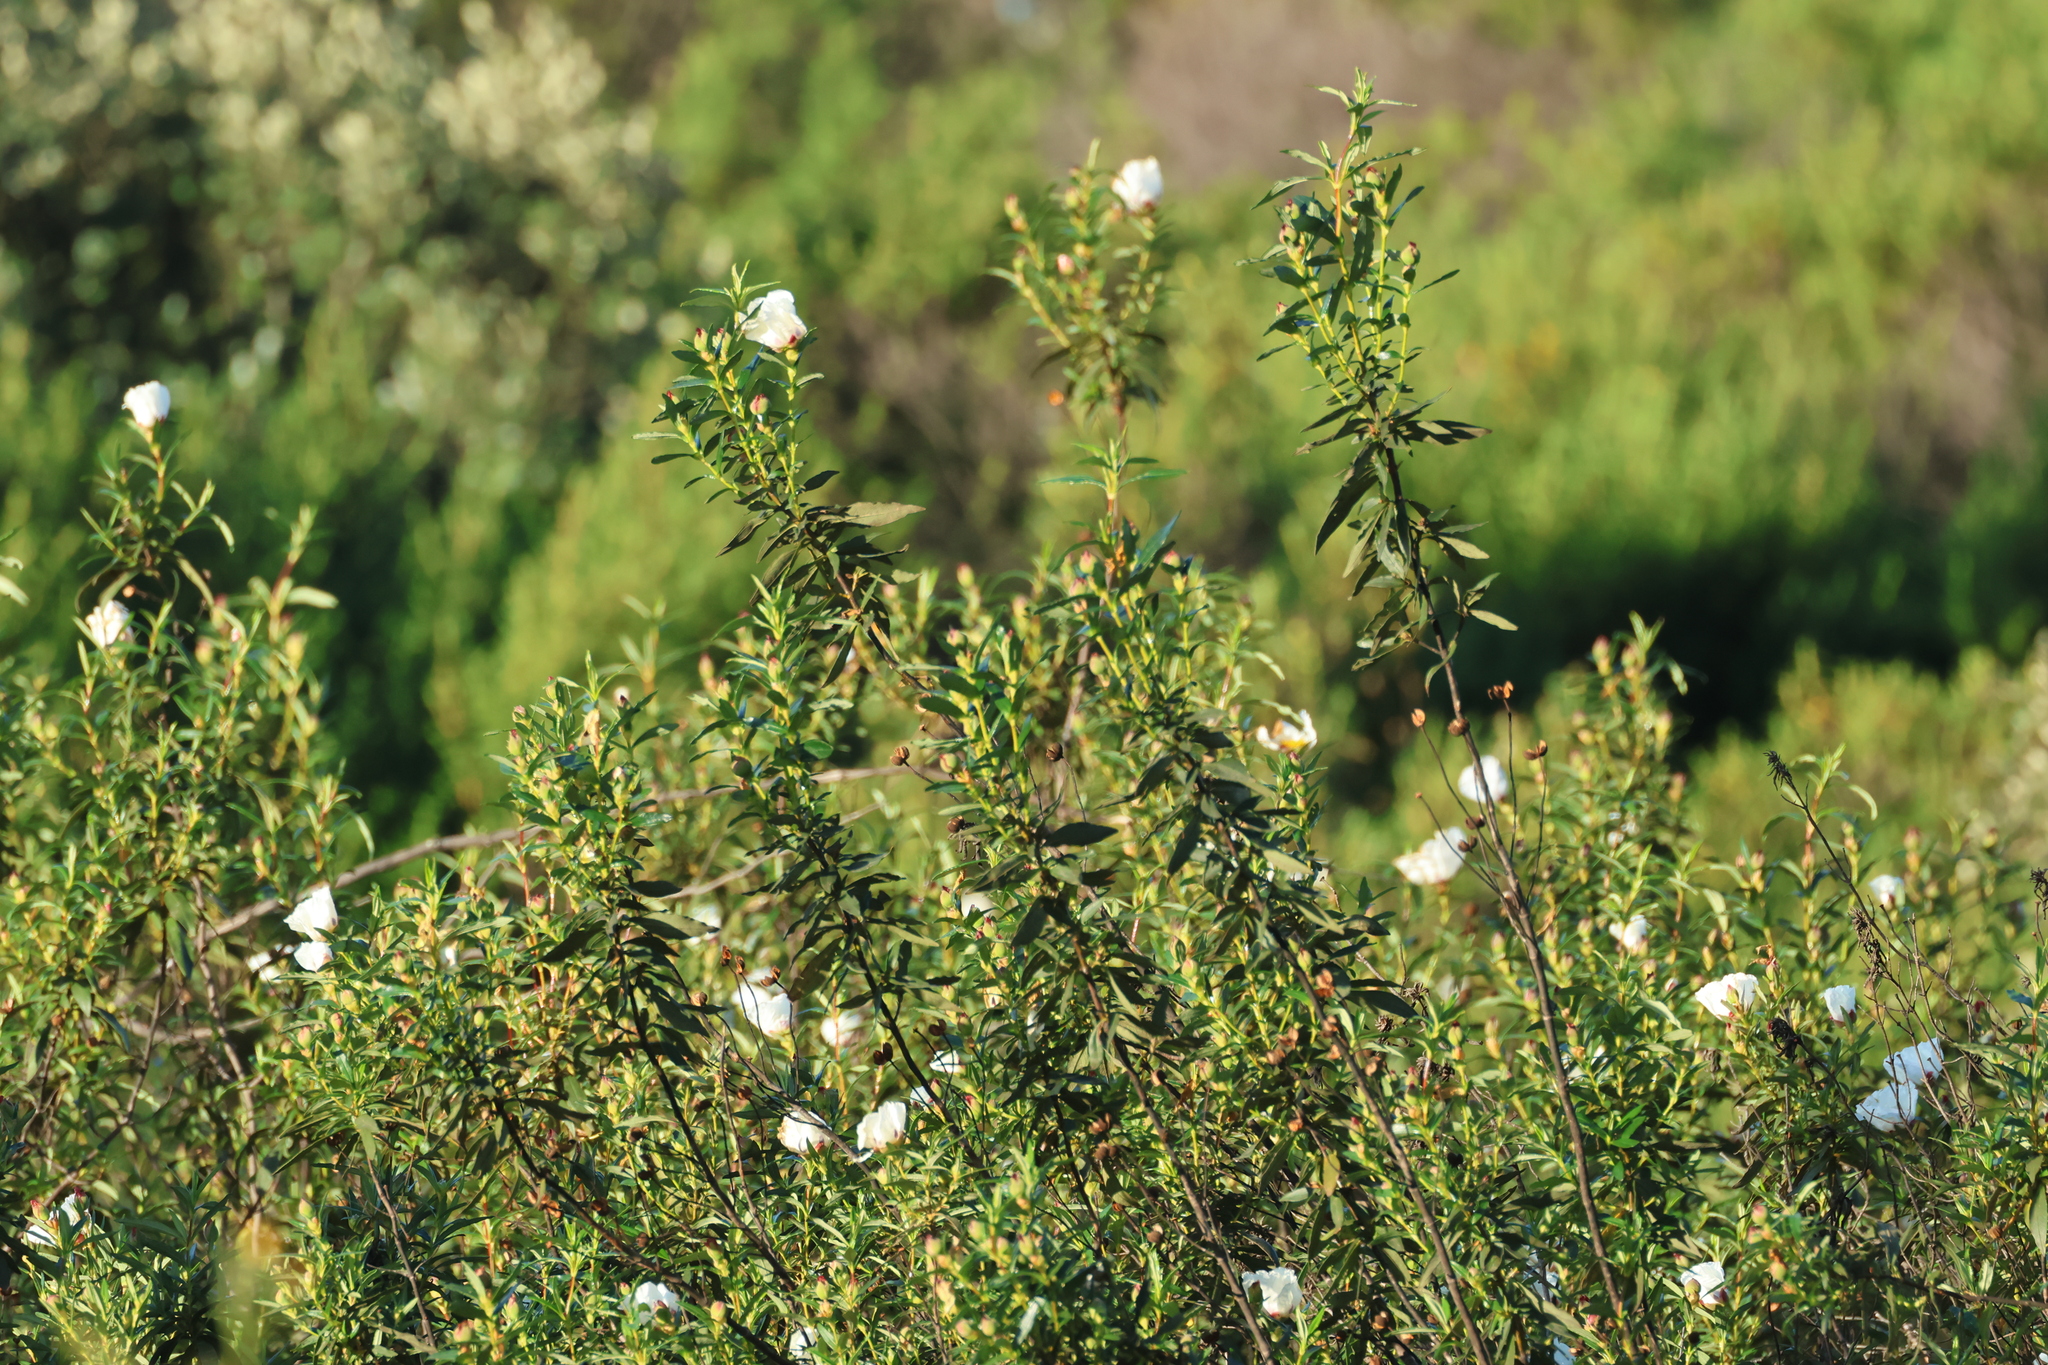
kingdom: Plantae
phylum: Tracheophyta
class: Magnoliopsida
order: Malvales
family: Cistaceae
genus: Cistus
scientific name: Cistus ladanifer
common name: Common gum cistus
